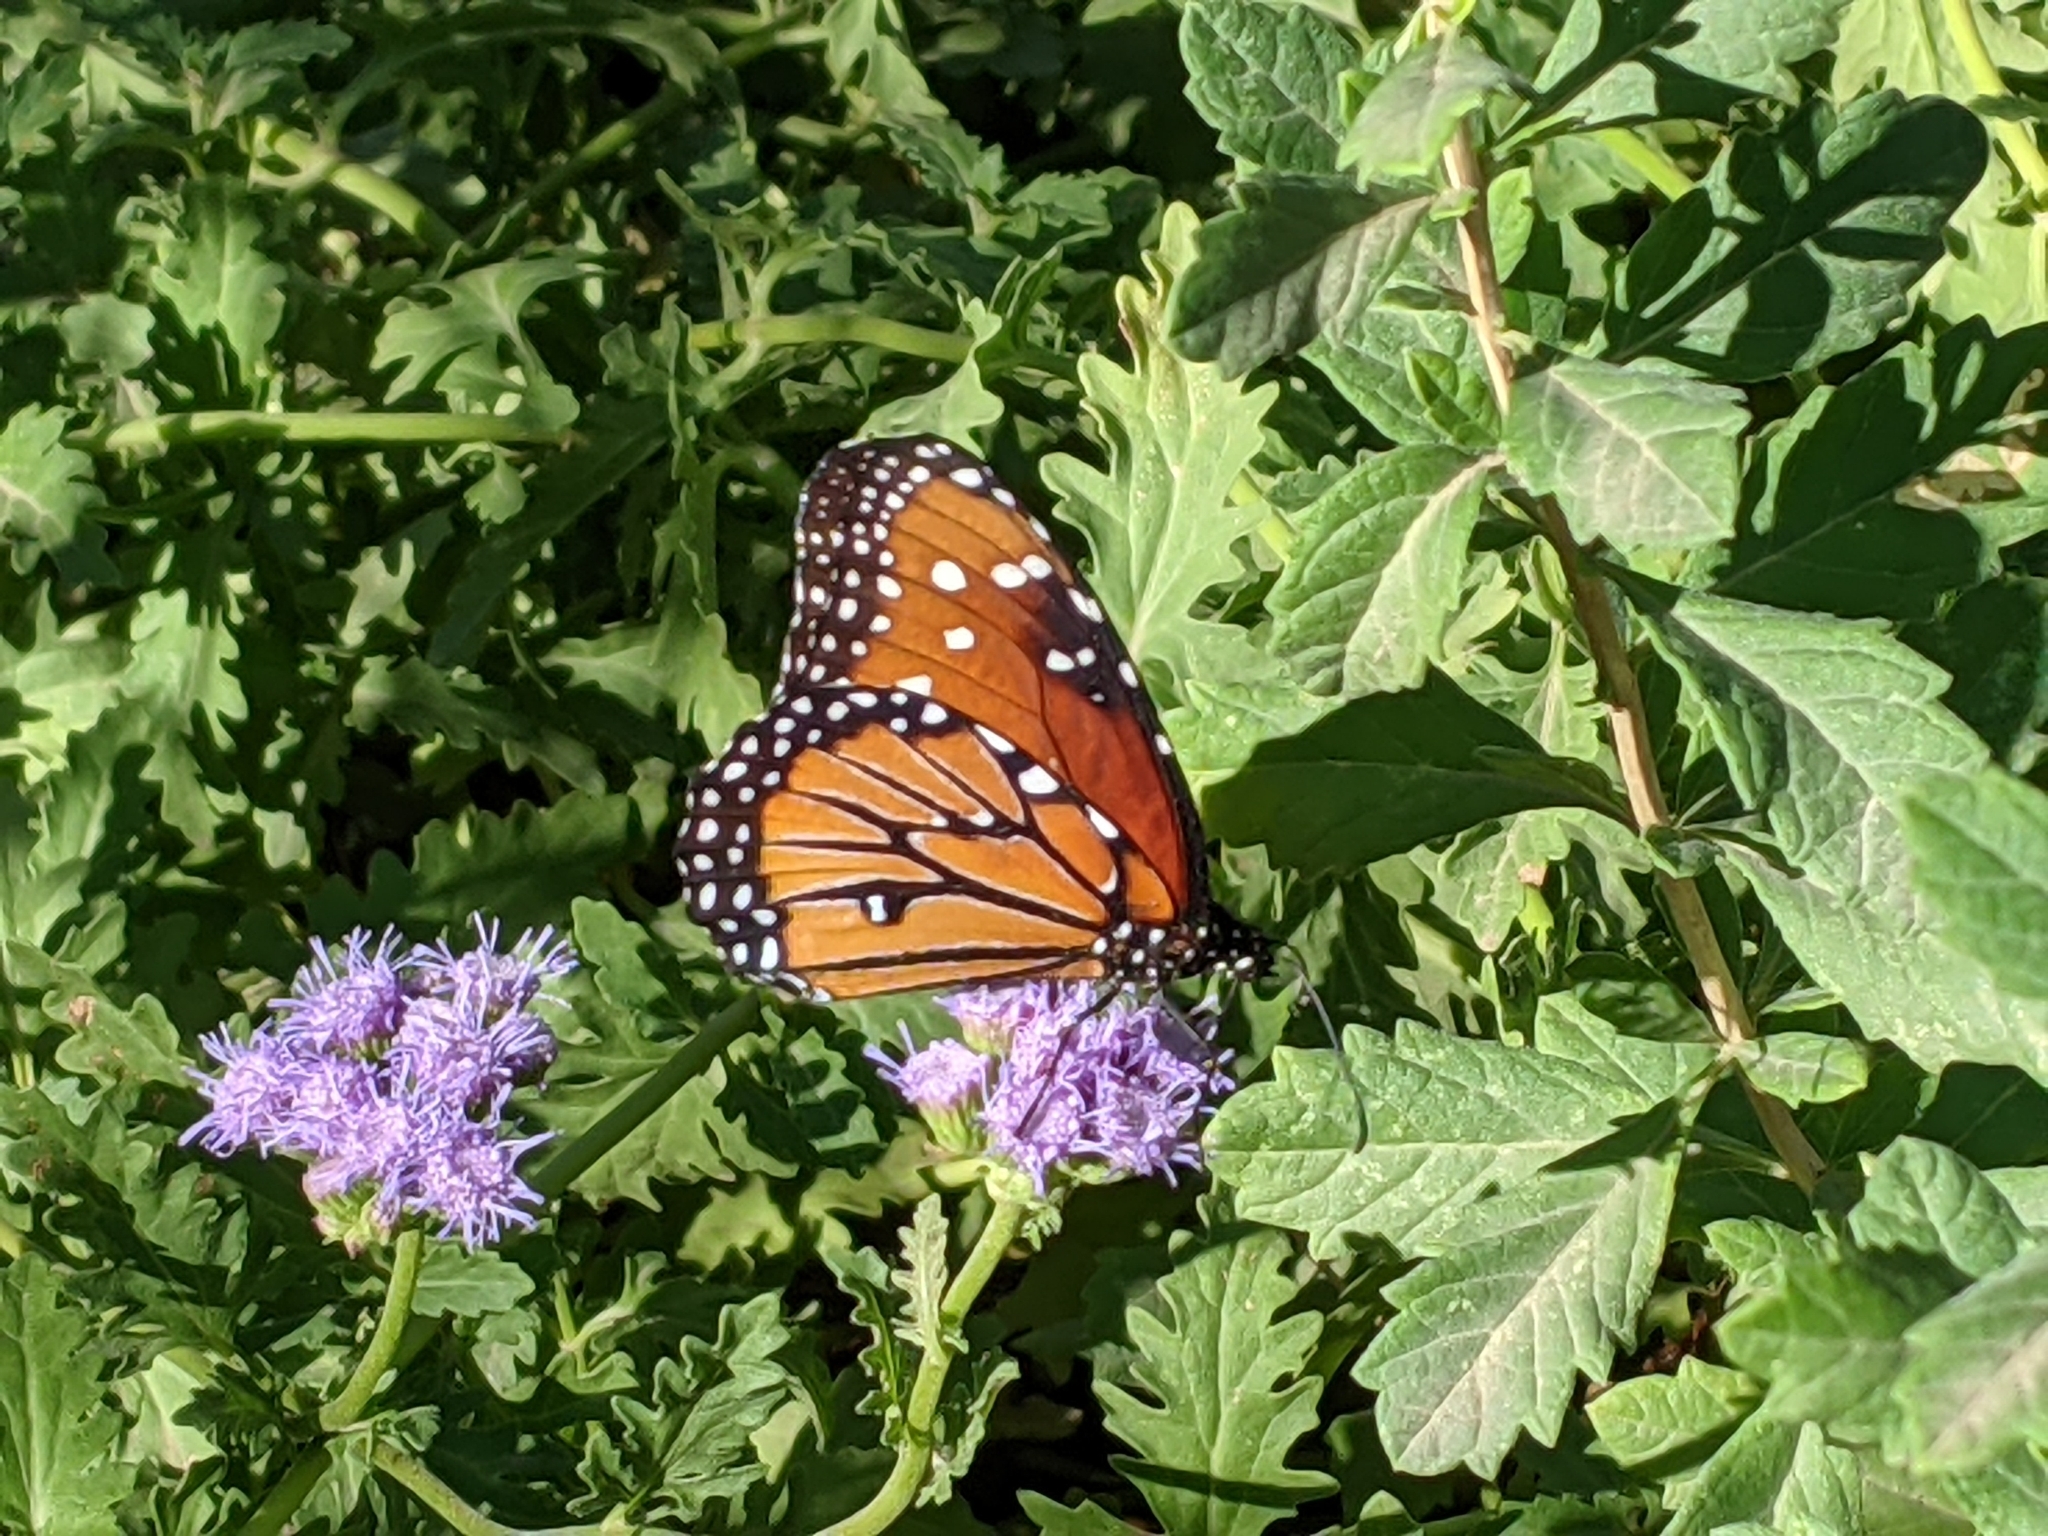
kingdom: Animalia
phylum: Arthropoda
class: Insecta
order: Lepidoptera
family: Nymphalidae
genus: Danaus
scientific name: Danaus gilippus
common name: Queen
